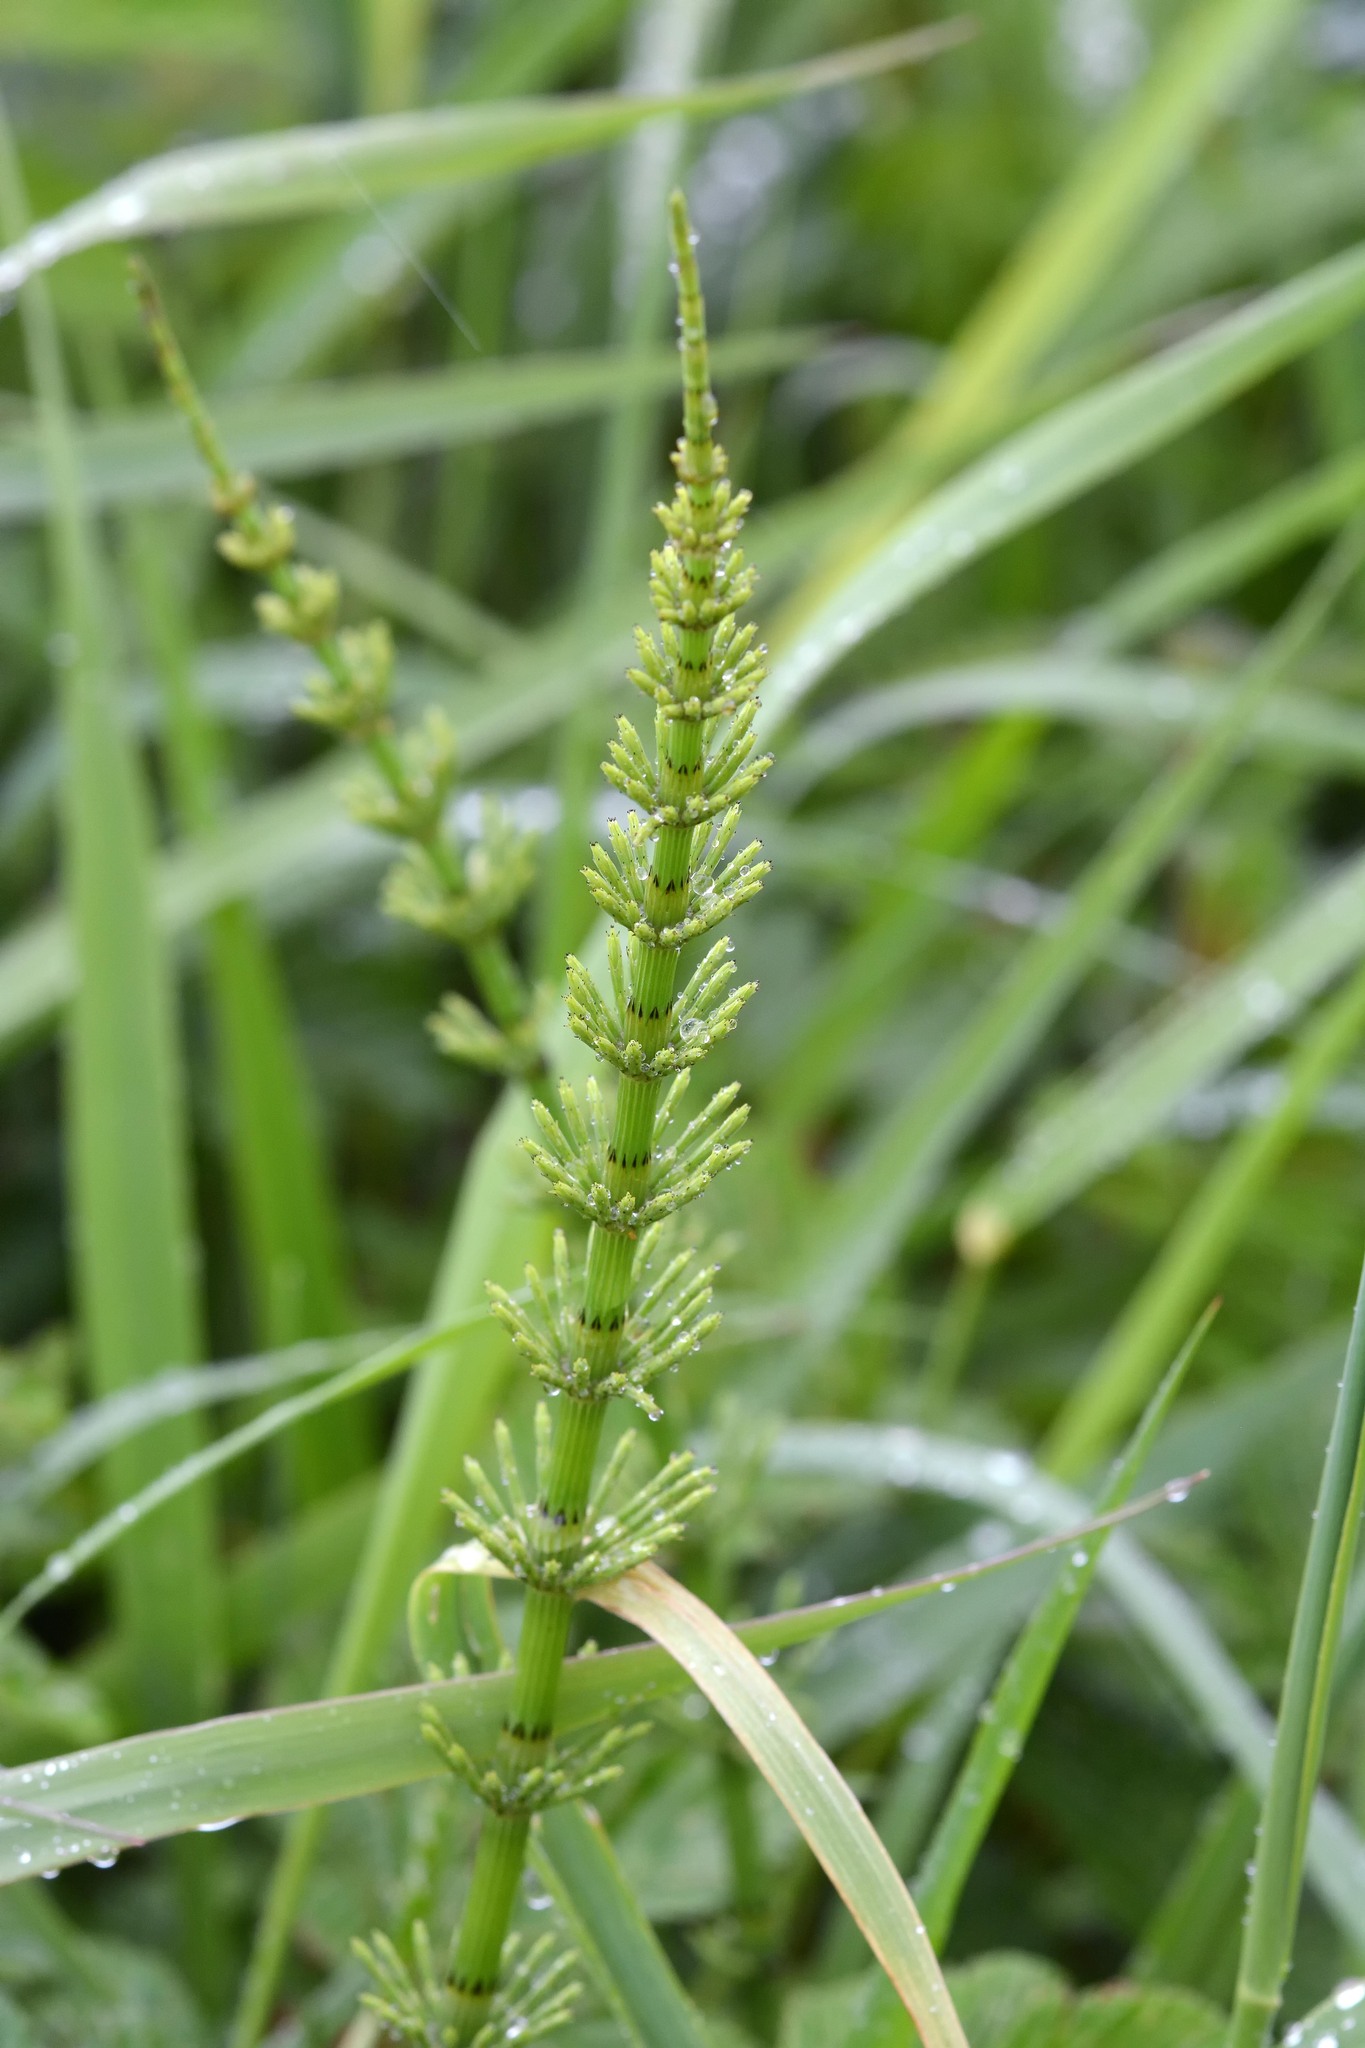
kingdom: Plantae
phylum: Tracheophyta
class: Polypodiopsida
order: Equisetales
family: Equisetaceae
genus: Equisetum
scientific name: Equisetum arvense
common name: Field horsetail
